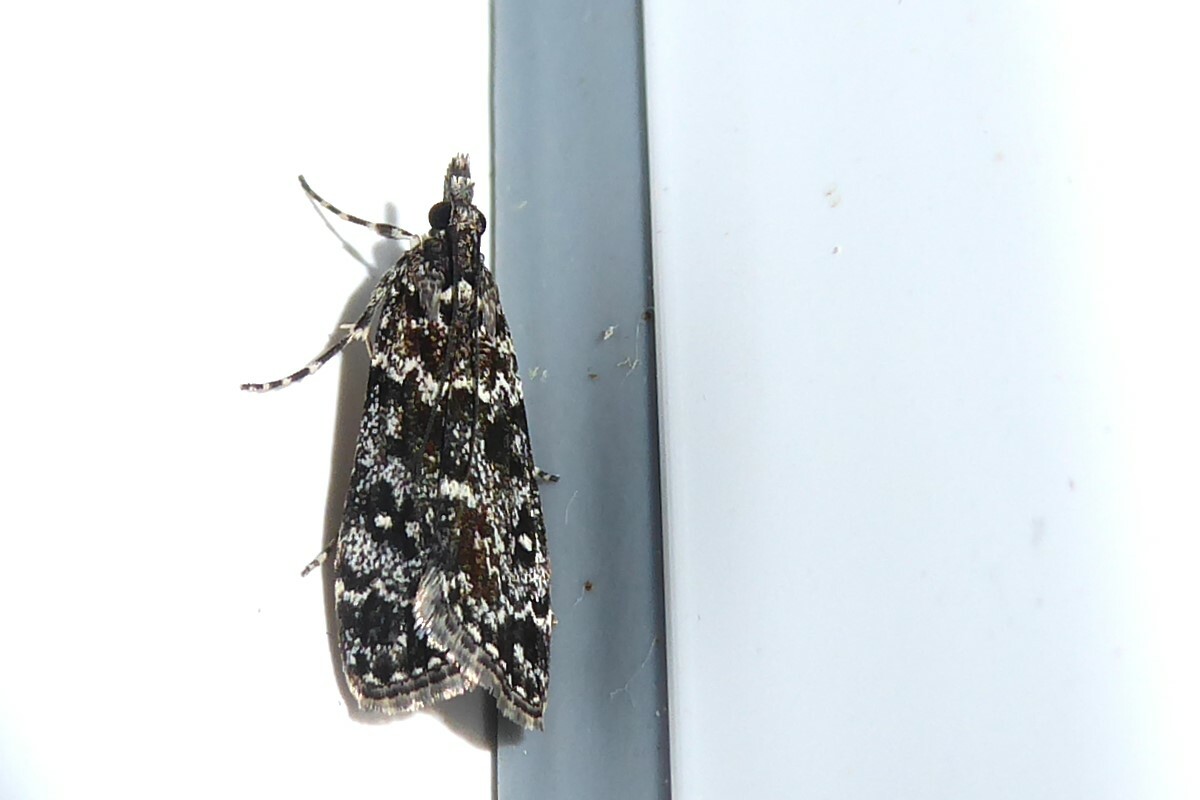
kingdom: Animalia
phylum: Arthropoda
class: Insecta
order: Lepidoptera
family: Crambidae
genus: Eudonia
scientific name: Eudonia philerga
